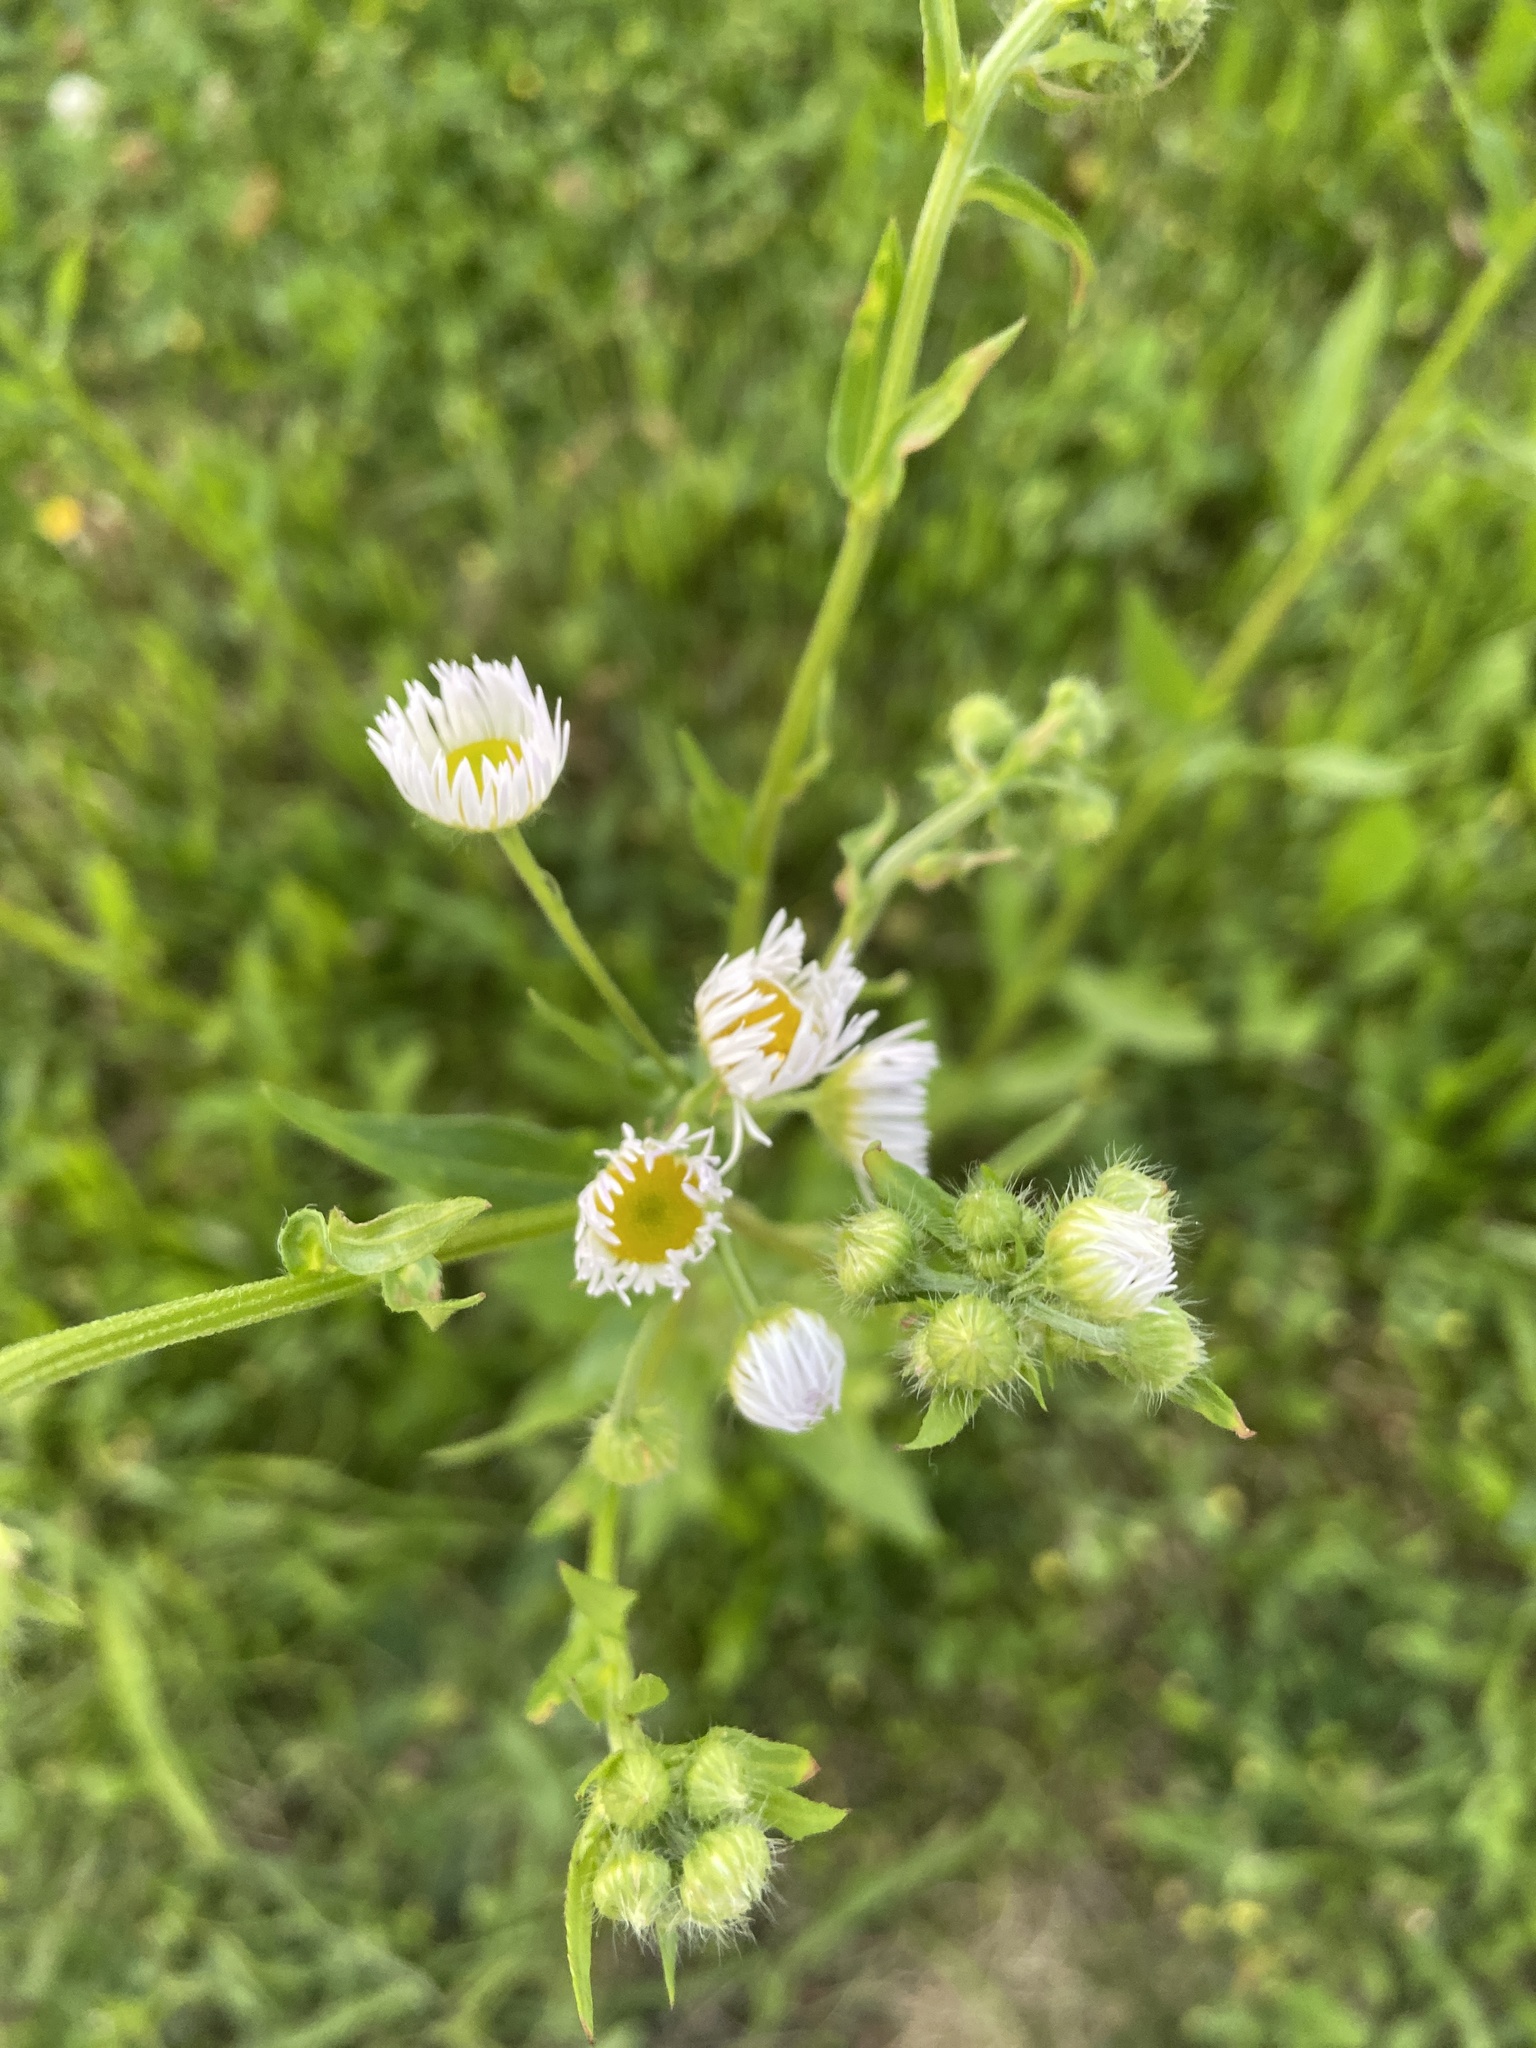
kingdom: Plantae
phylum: Tracheophyta
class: Magnoliopsida
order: Asterales
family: Asteraceae
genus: Erigeron
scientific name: Erigeron annuus
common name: Tall fleabane
